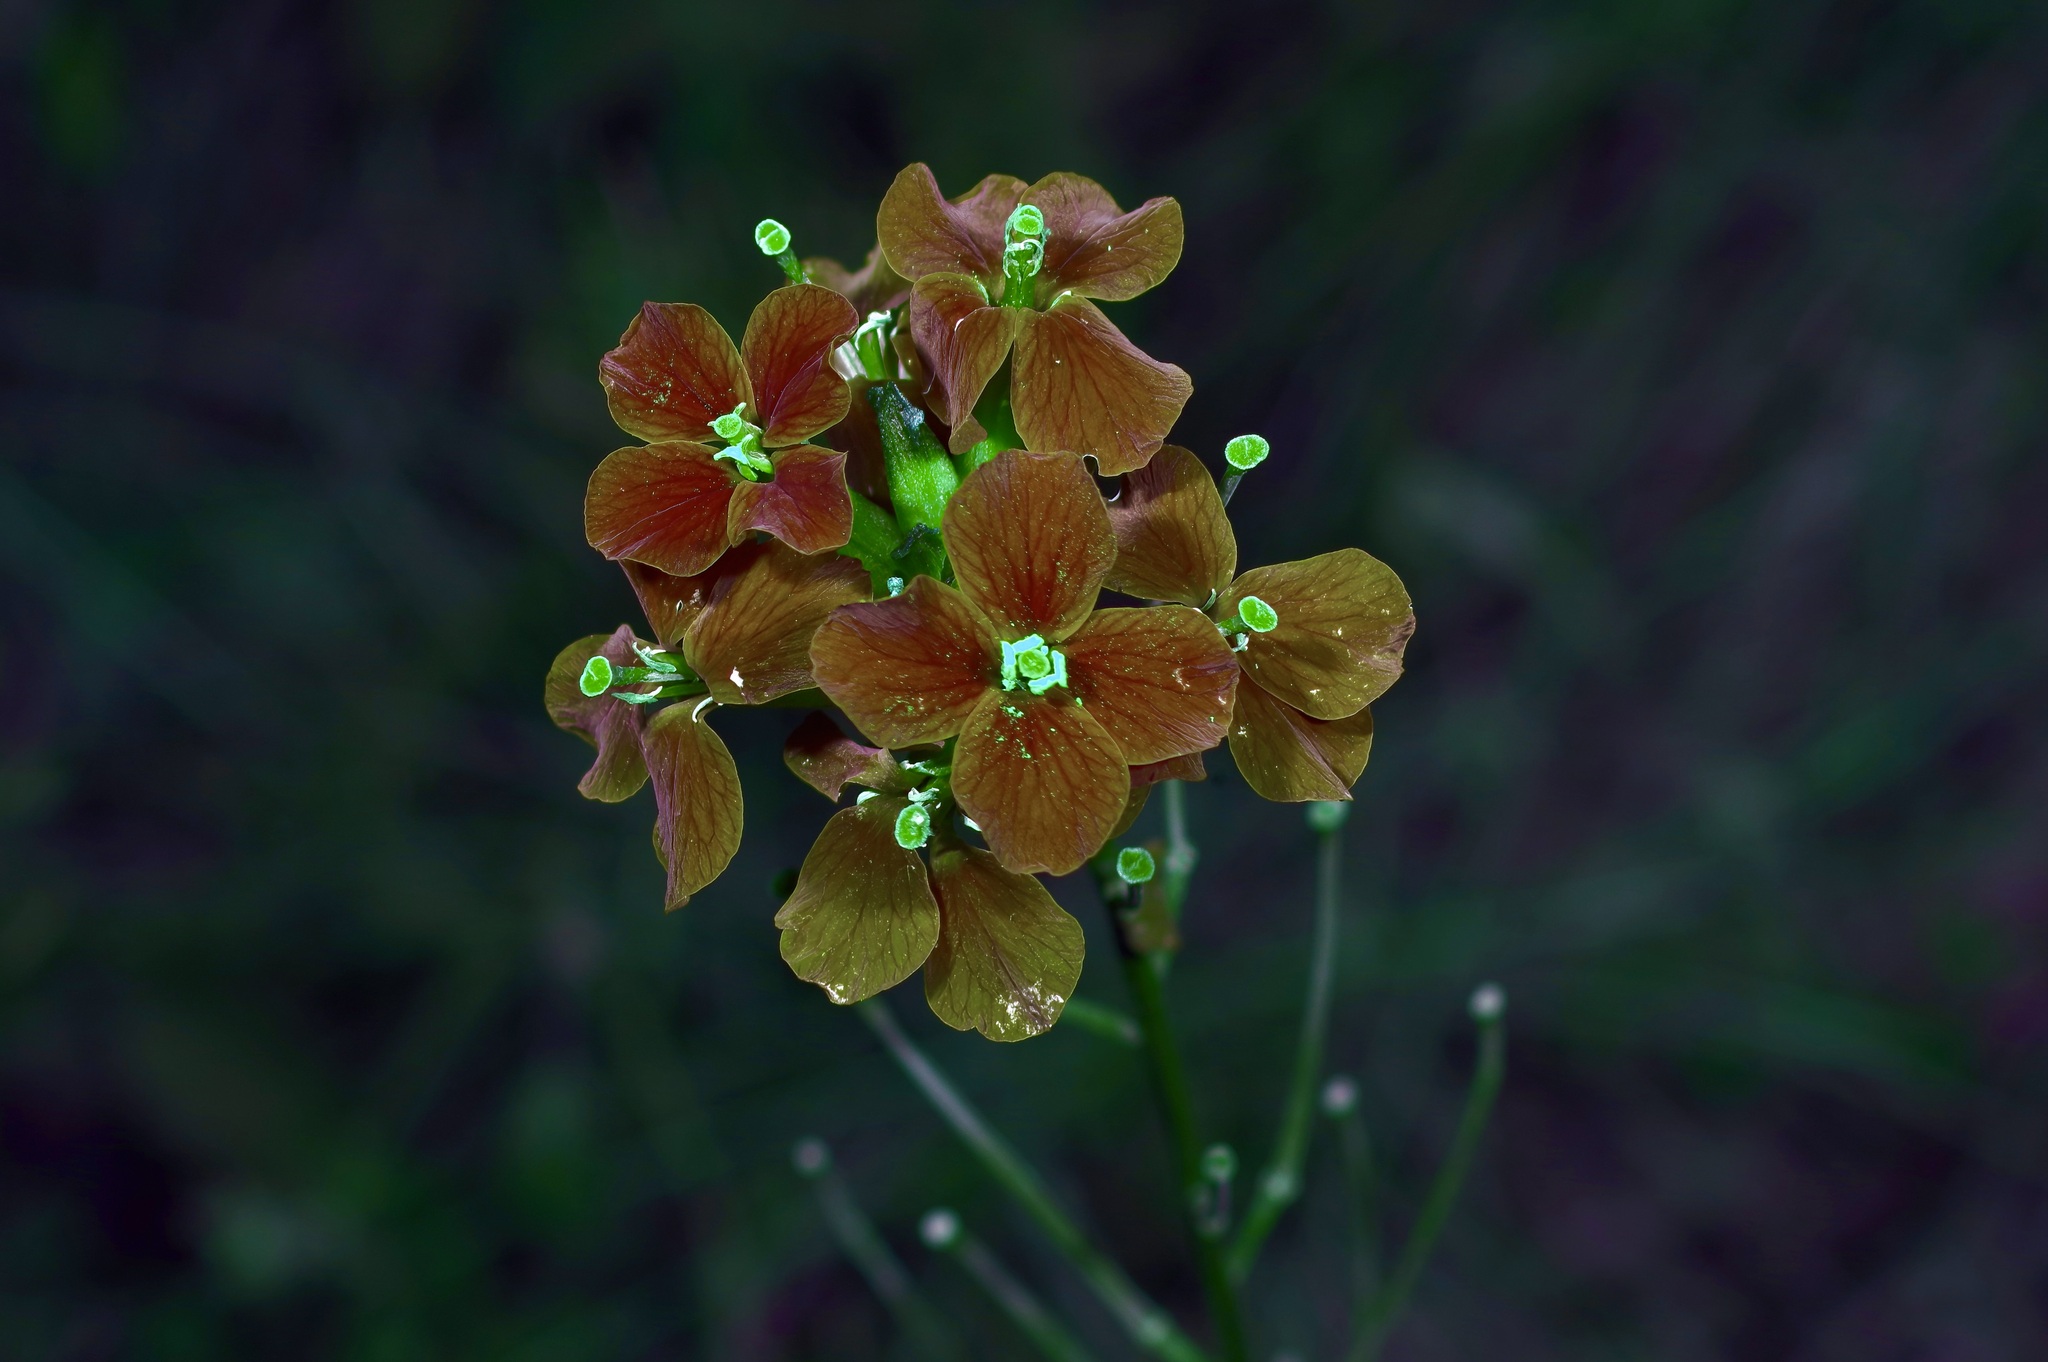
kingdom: Plantae
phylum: Tracheophyta
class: Magnoliopsida
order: Brassicales
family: Brassicaceae
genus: Erysimum
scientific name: Erysimum capitatum
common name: Western wallflower
